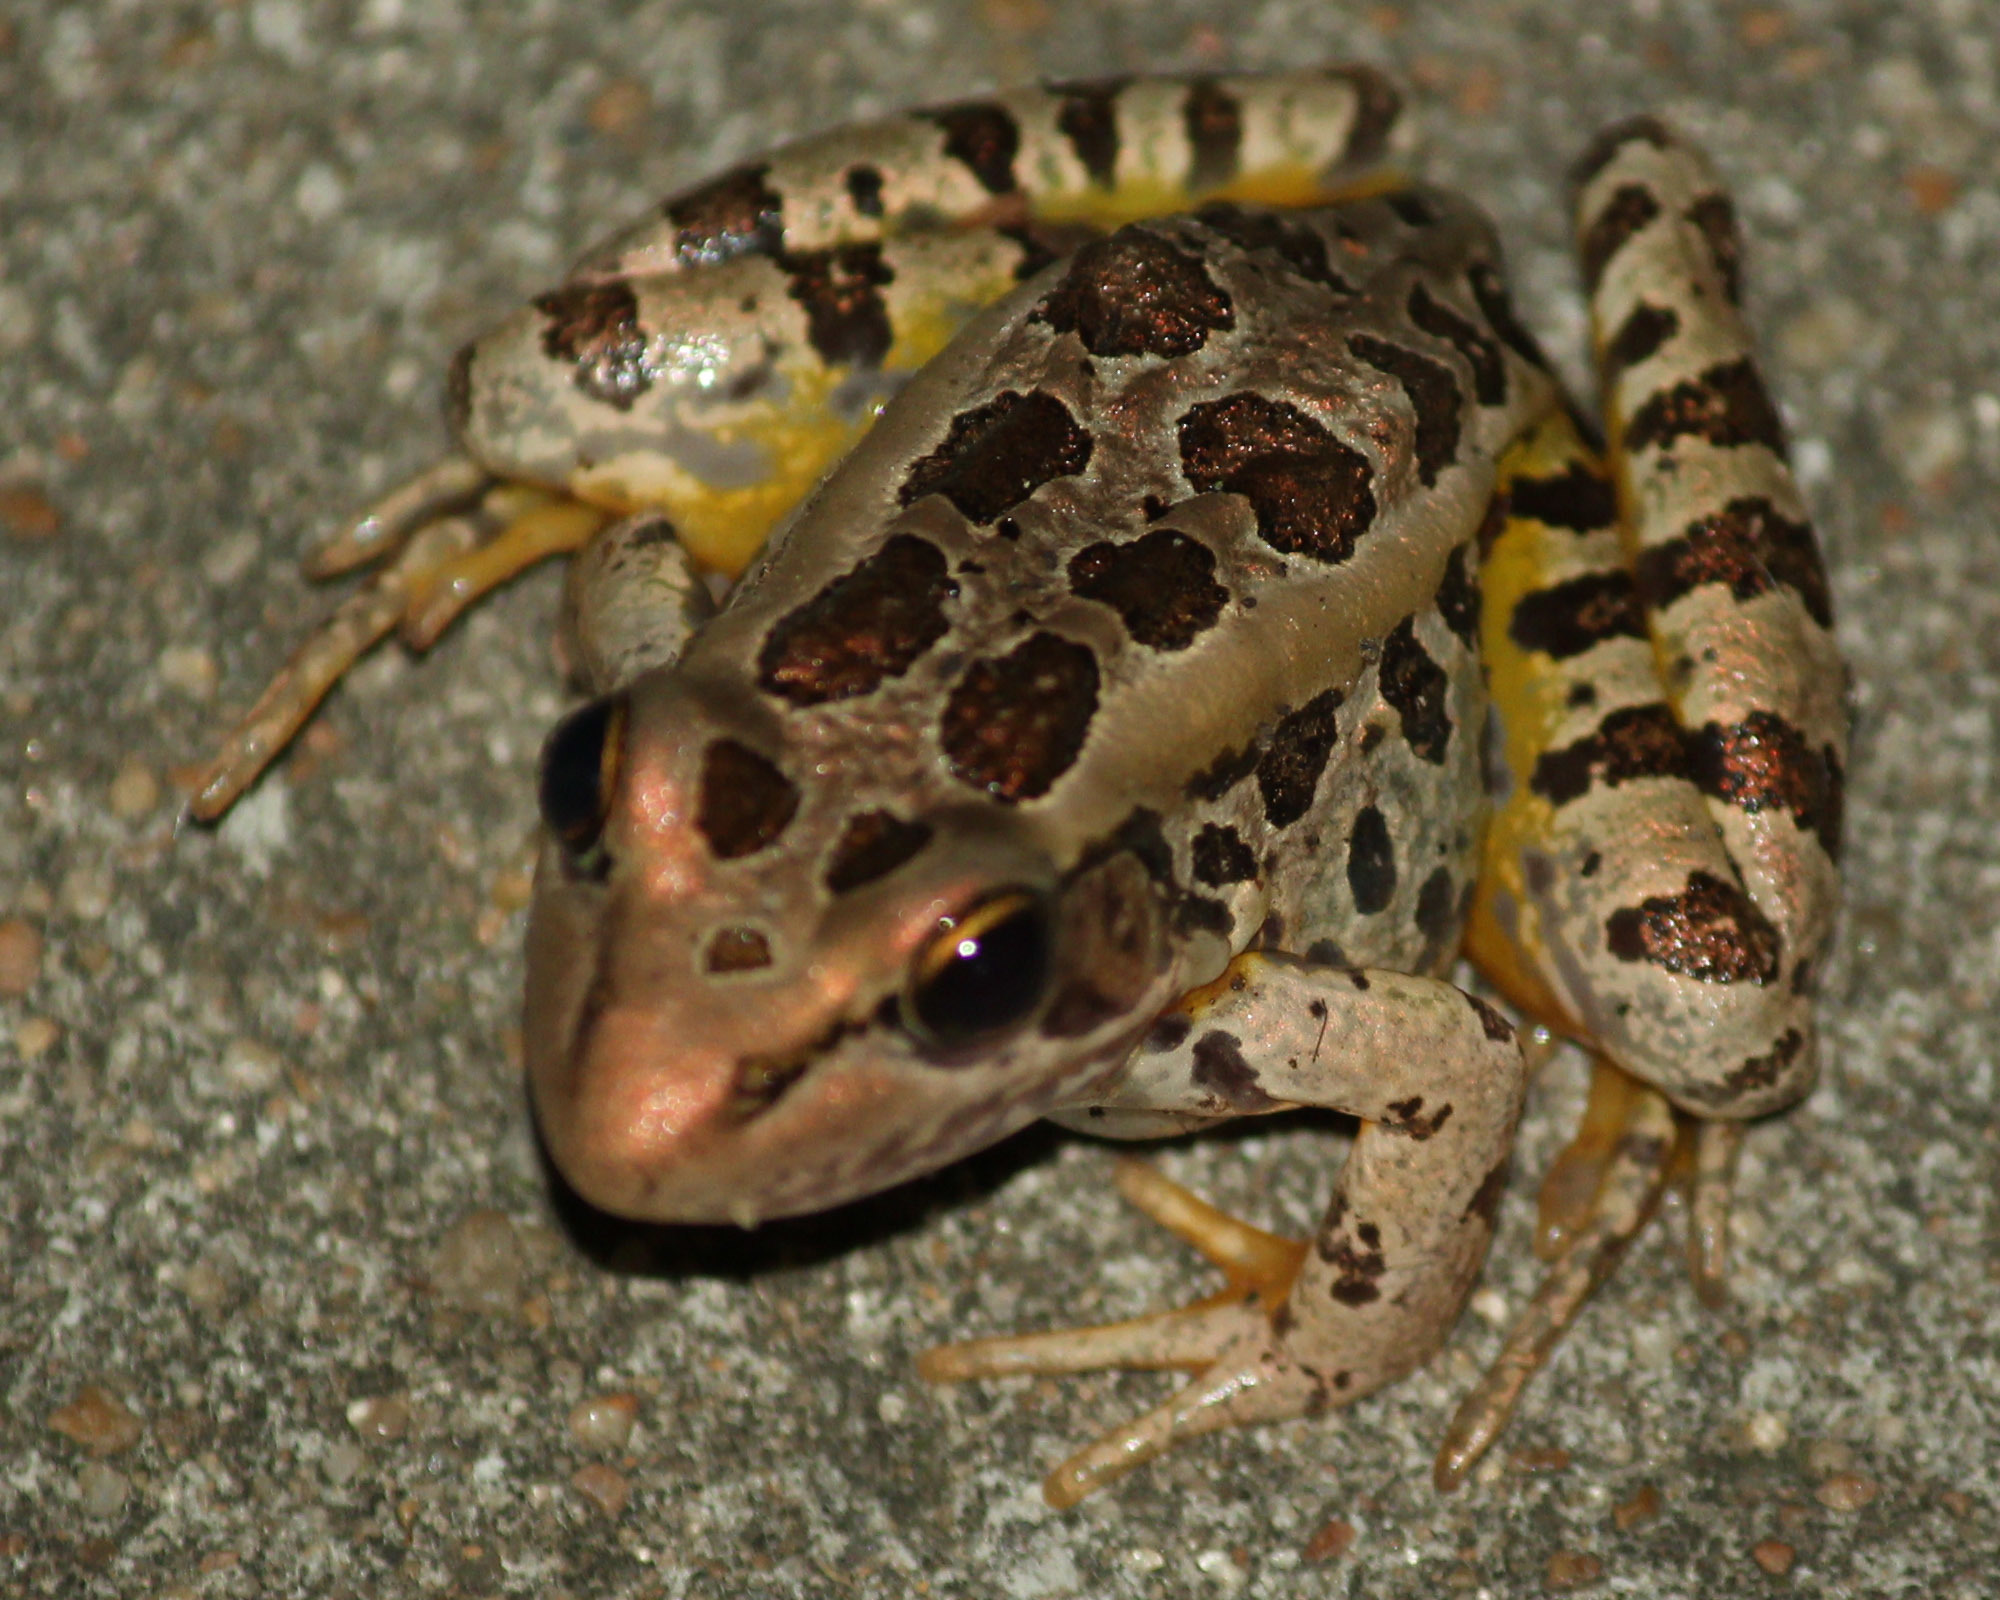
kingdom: Animalia
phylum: Chordata
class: Amphibia
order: Anura
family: Ranidae
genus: Lithobates
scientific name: Lithobates palustris
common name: Pickerel frog
